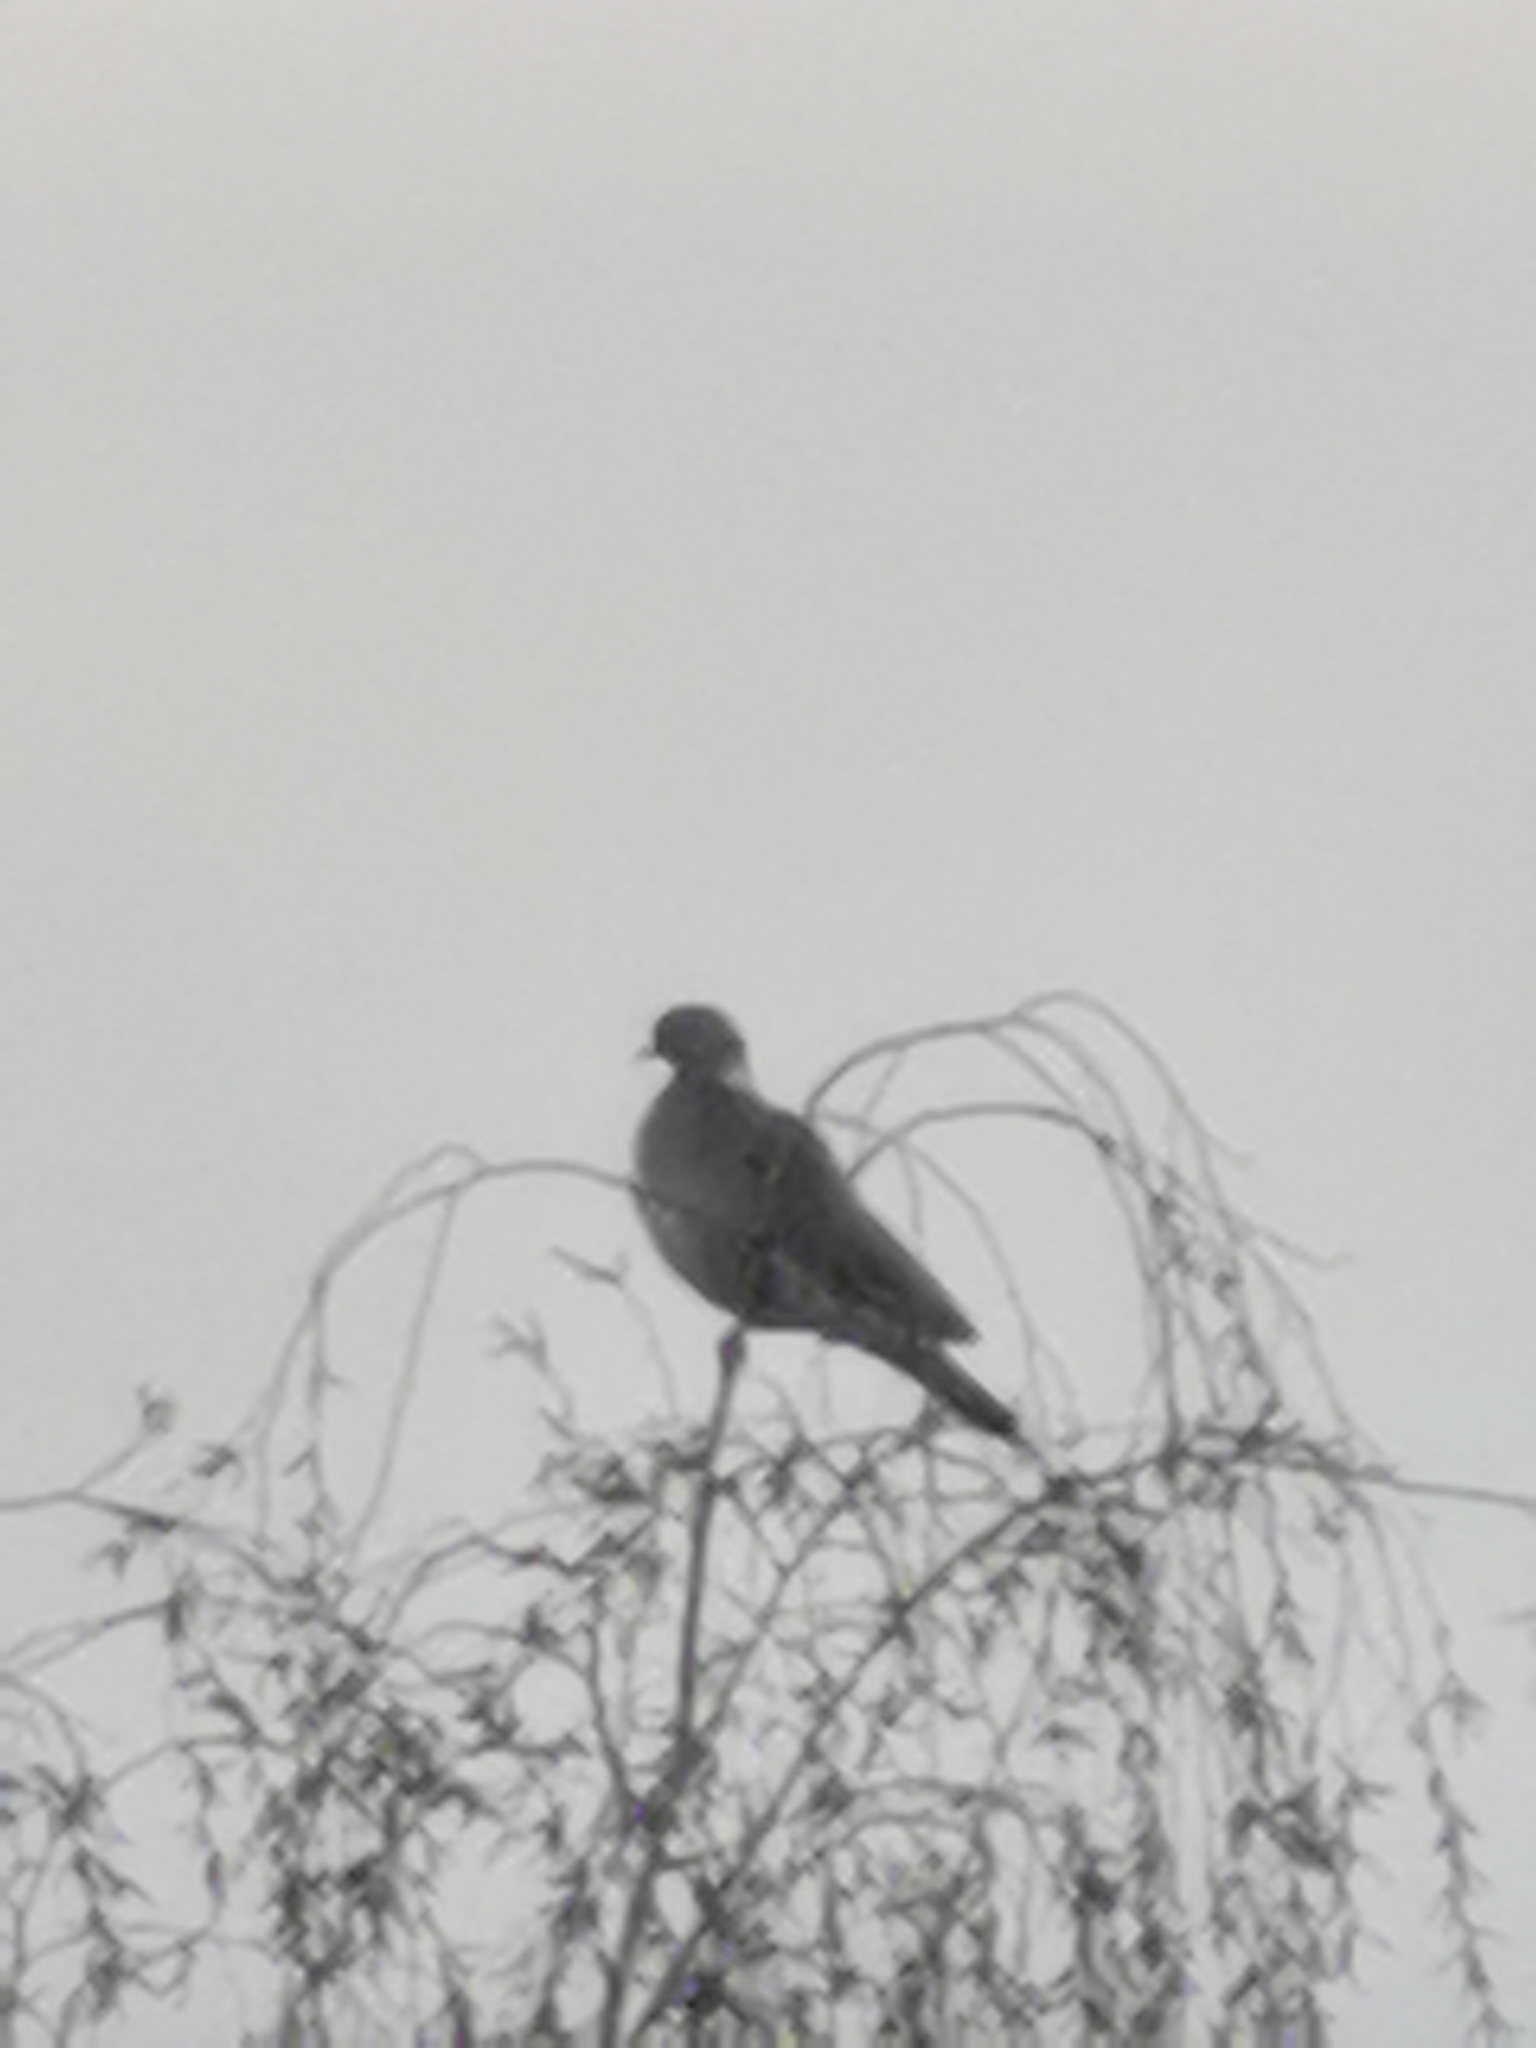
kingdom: Animalia
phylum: Chordata
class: Aves
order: Columbiformes
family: Columbidae
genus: Columba
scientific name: Columba palumbus
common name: Common wood pigeon
